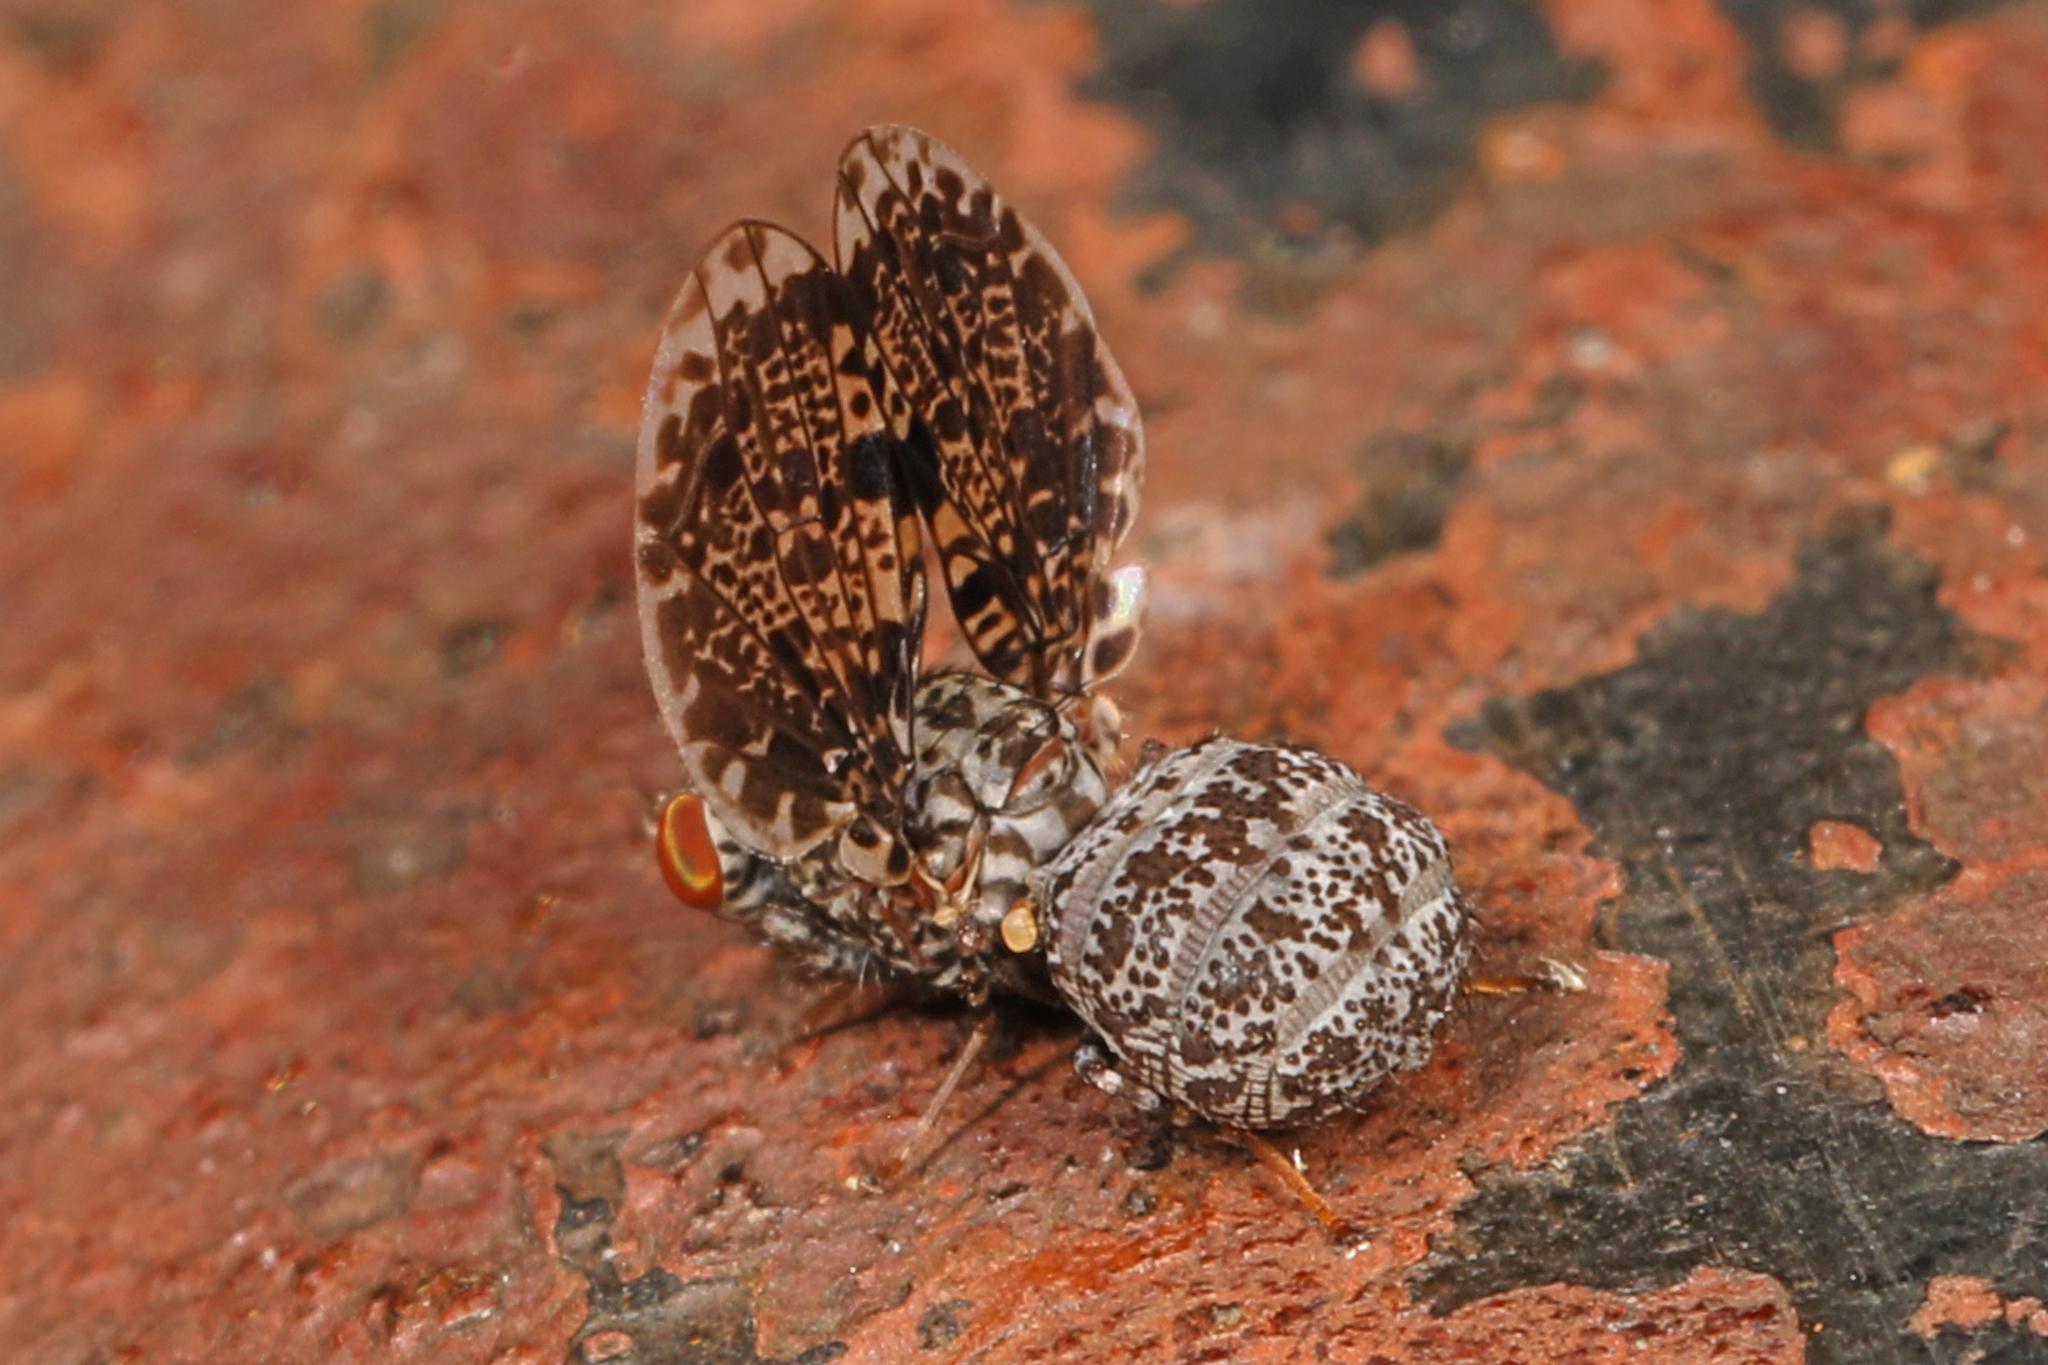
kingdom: Animalia
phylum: Arthropoda
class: Insecta
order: Diptera
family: Ulidiidae
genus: Callopistromyia
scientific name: Callopistromyia annulipes
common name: Peacock fly
